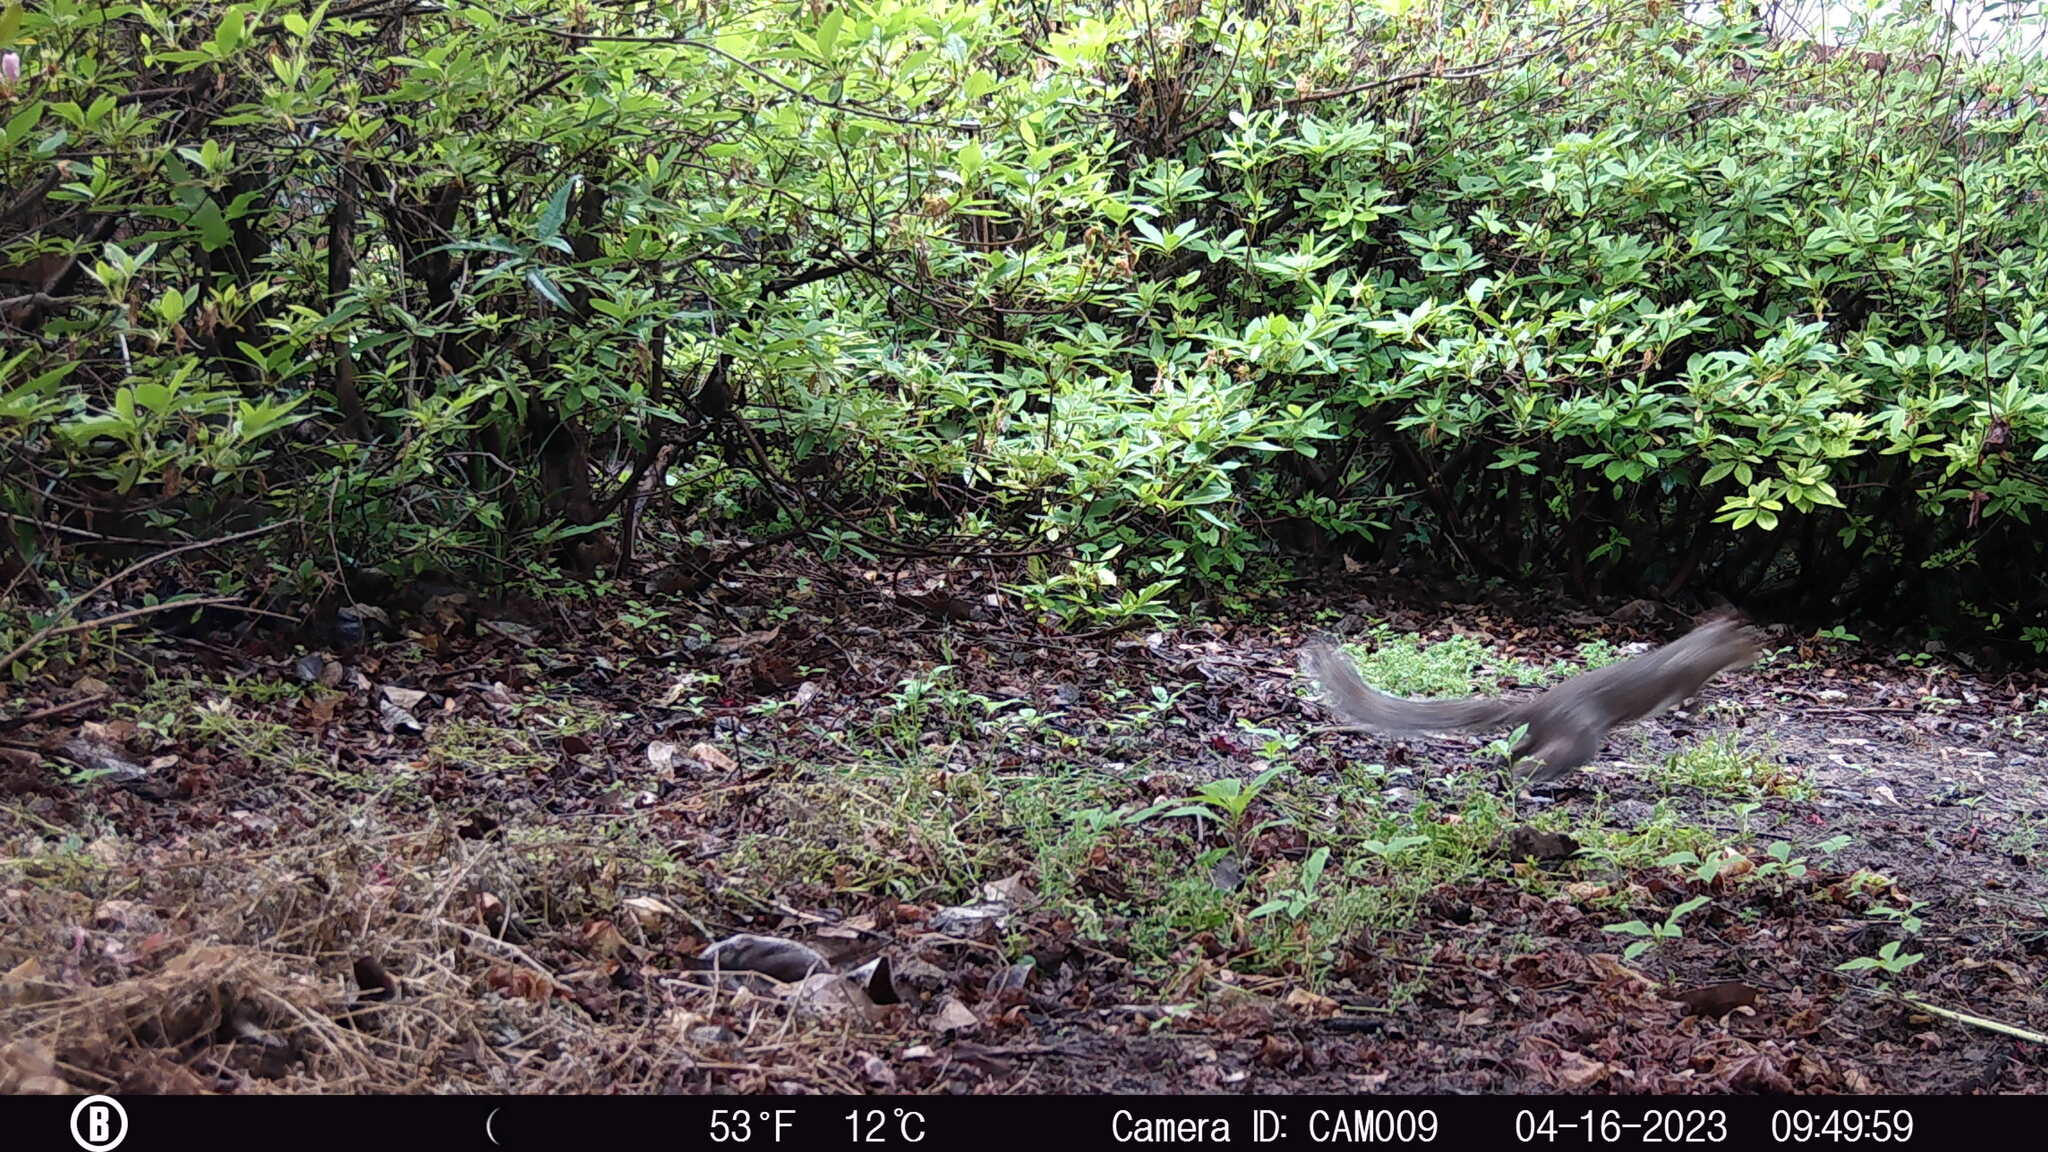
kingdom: Animalia
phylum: Chordata
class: Mammalia
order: Rodentia
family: Sciuridae
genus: Sciurus
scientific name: Sciurus carolinensis
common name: Eastern gray squirrel
